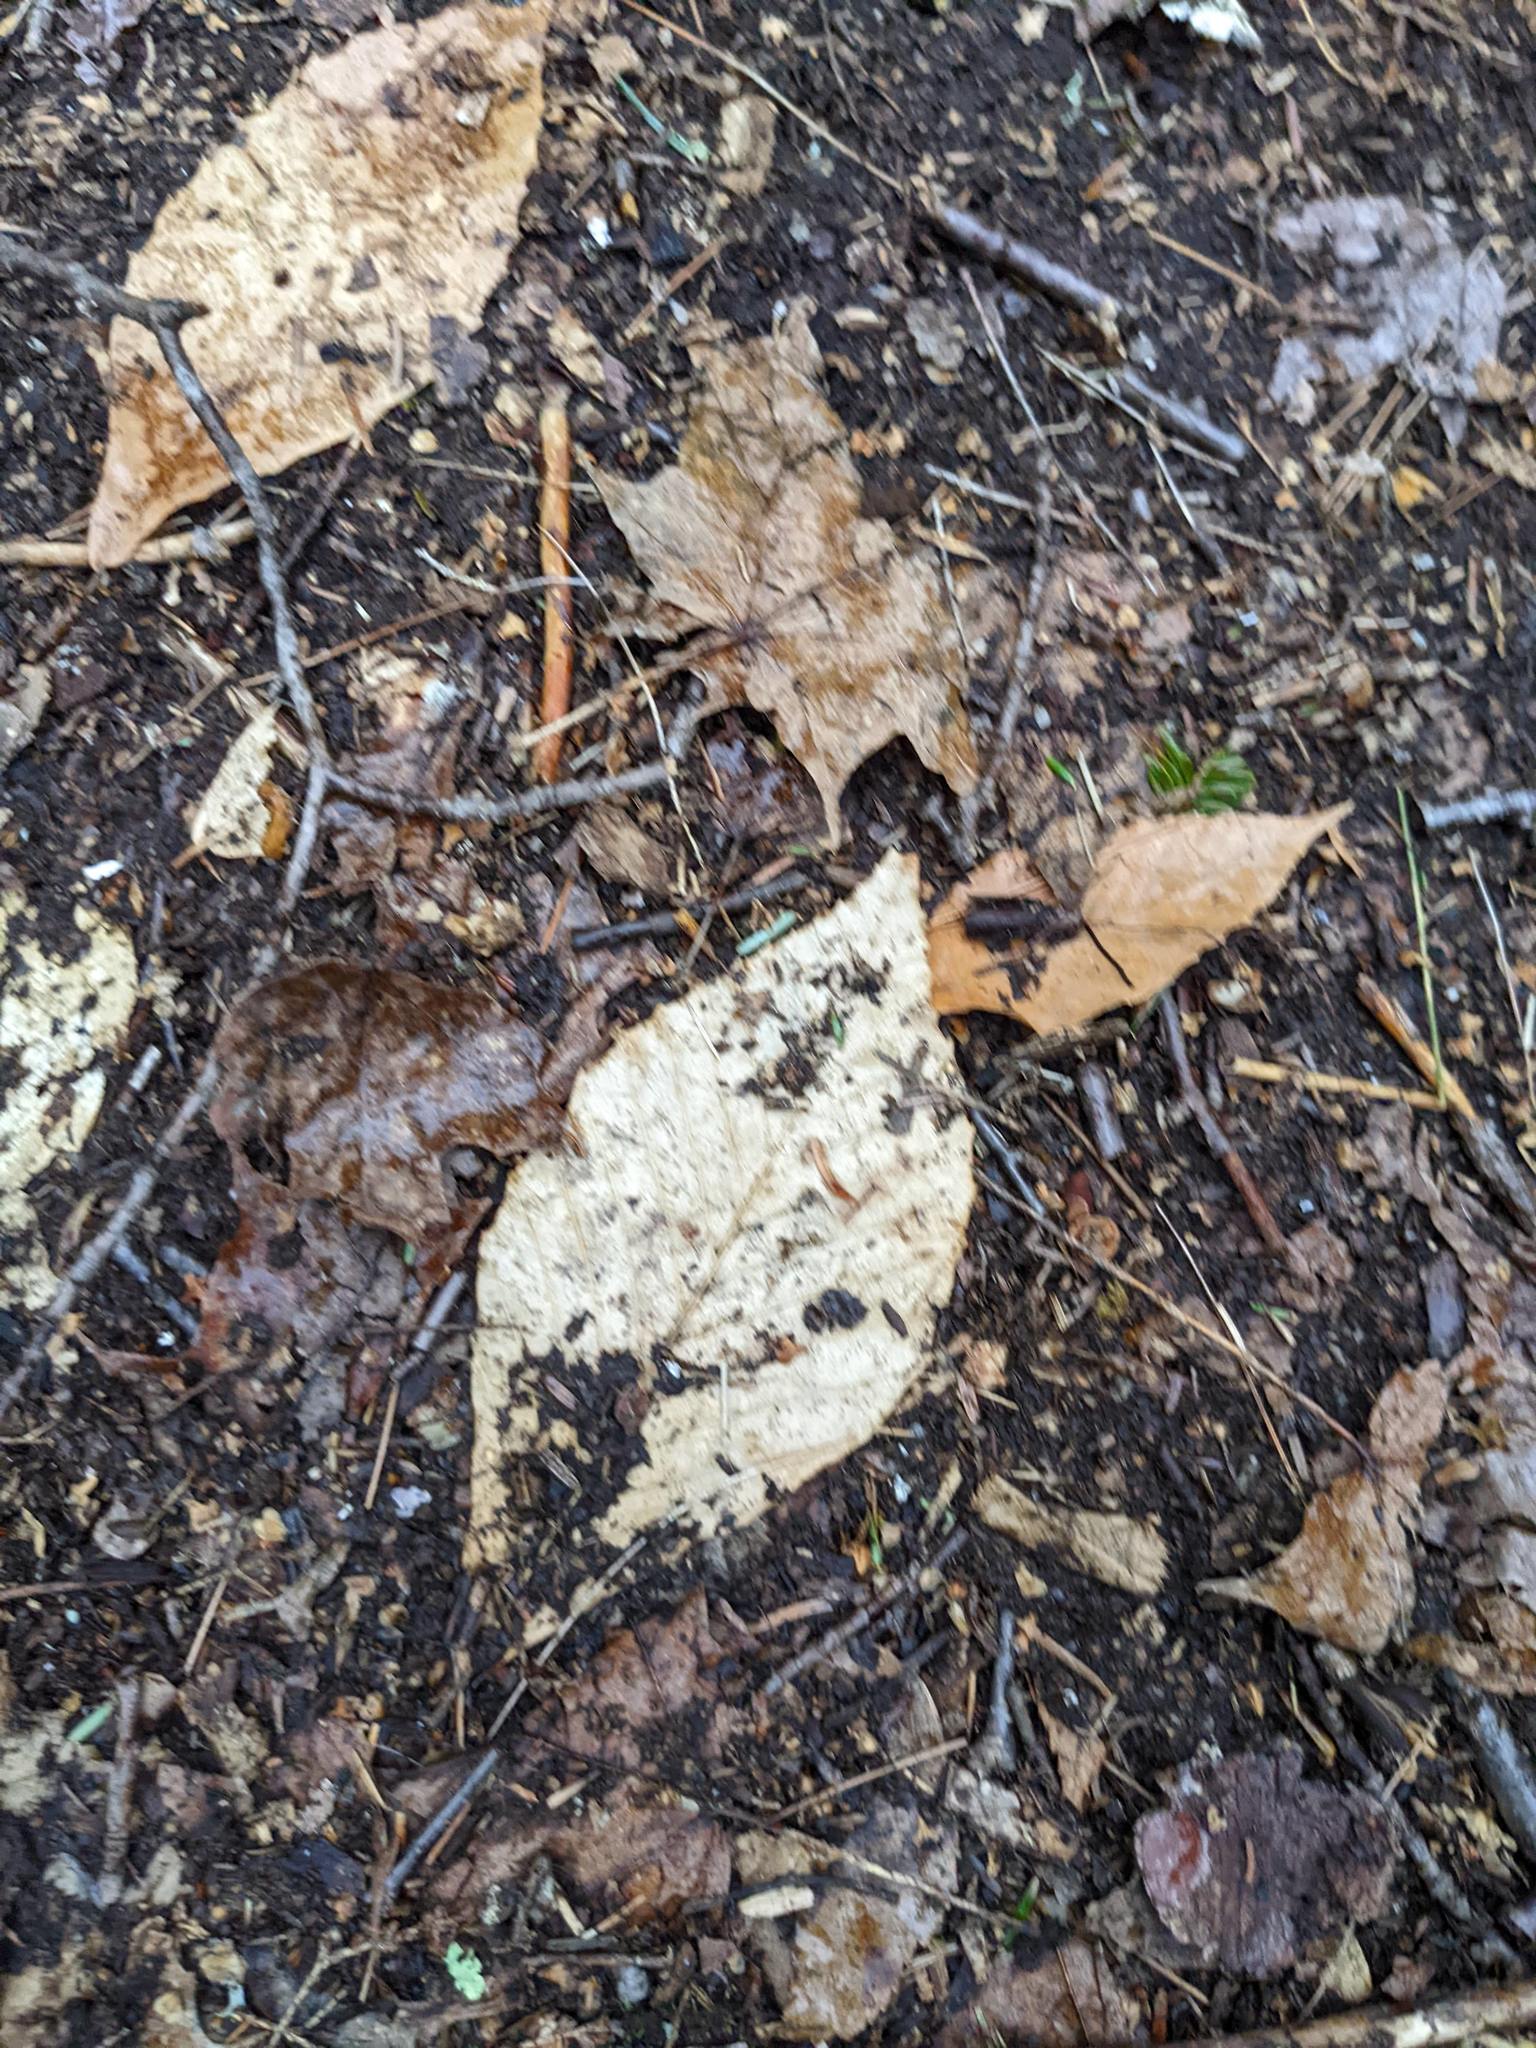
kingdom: Plantae
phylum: Tracheophyta
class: Magnoliopsida
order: Fagales
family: Fagaceae
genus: Fagus
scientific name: Fagus grandifolia
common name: American beech
